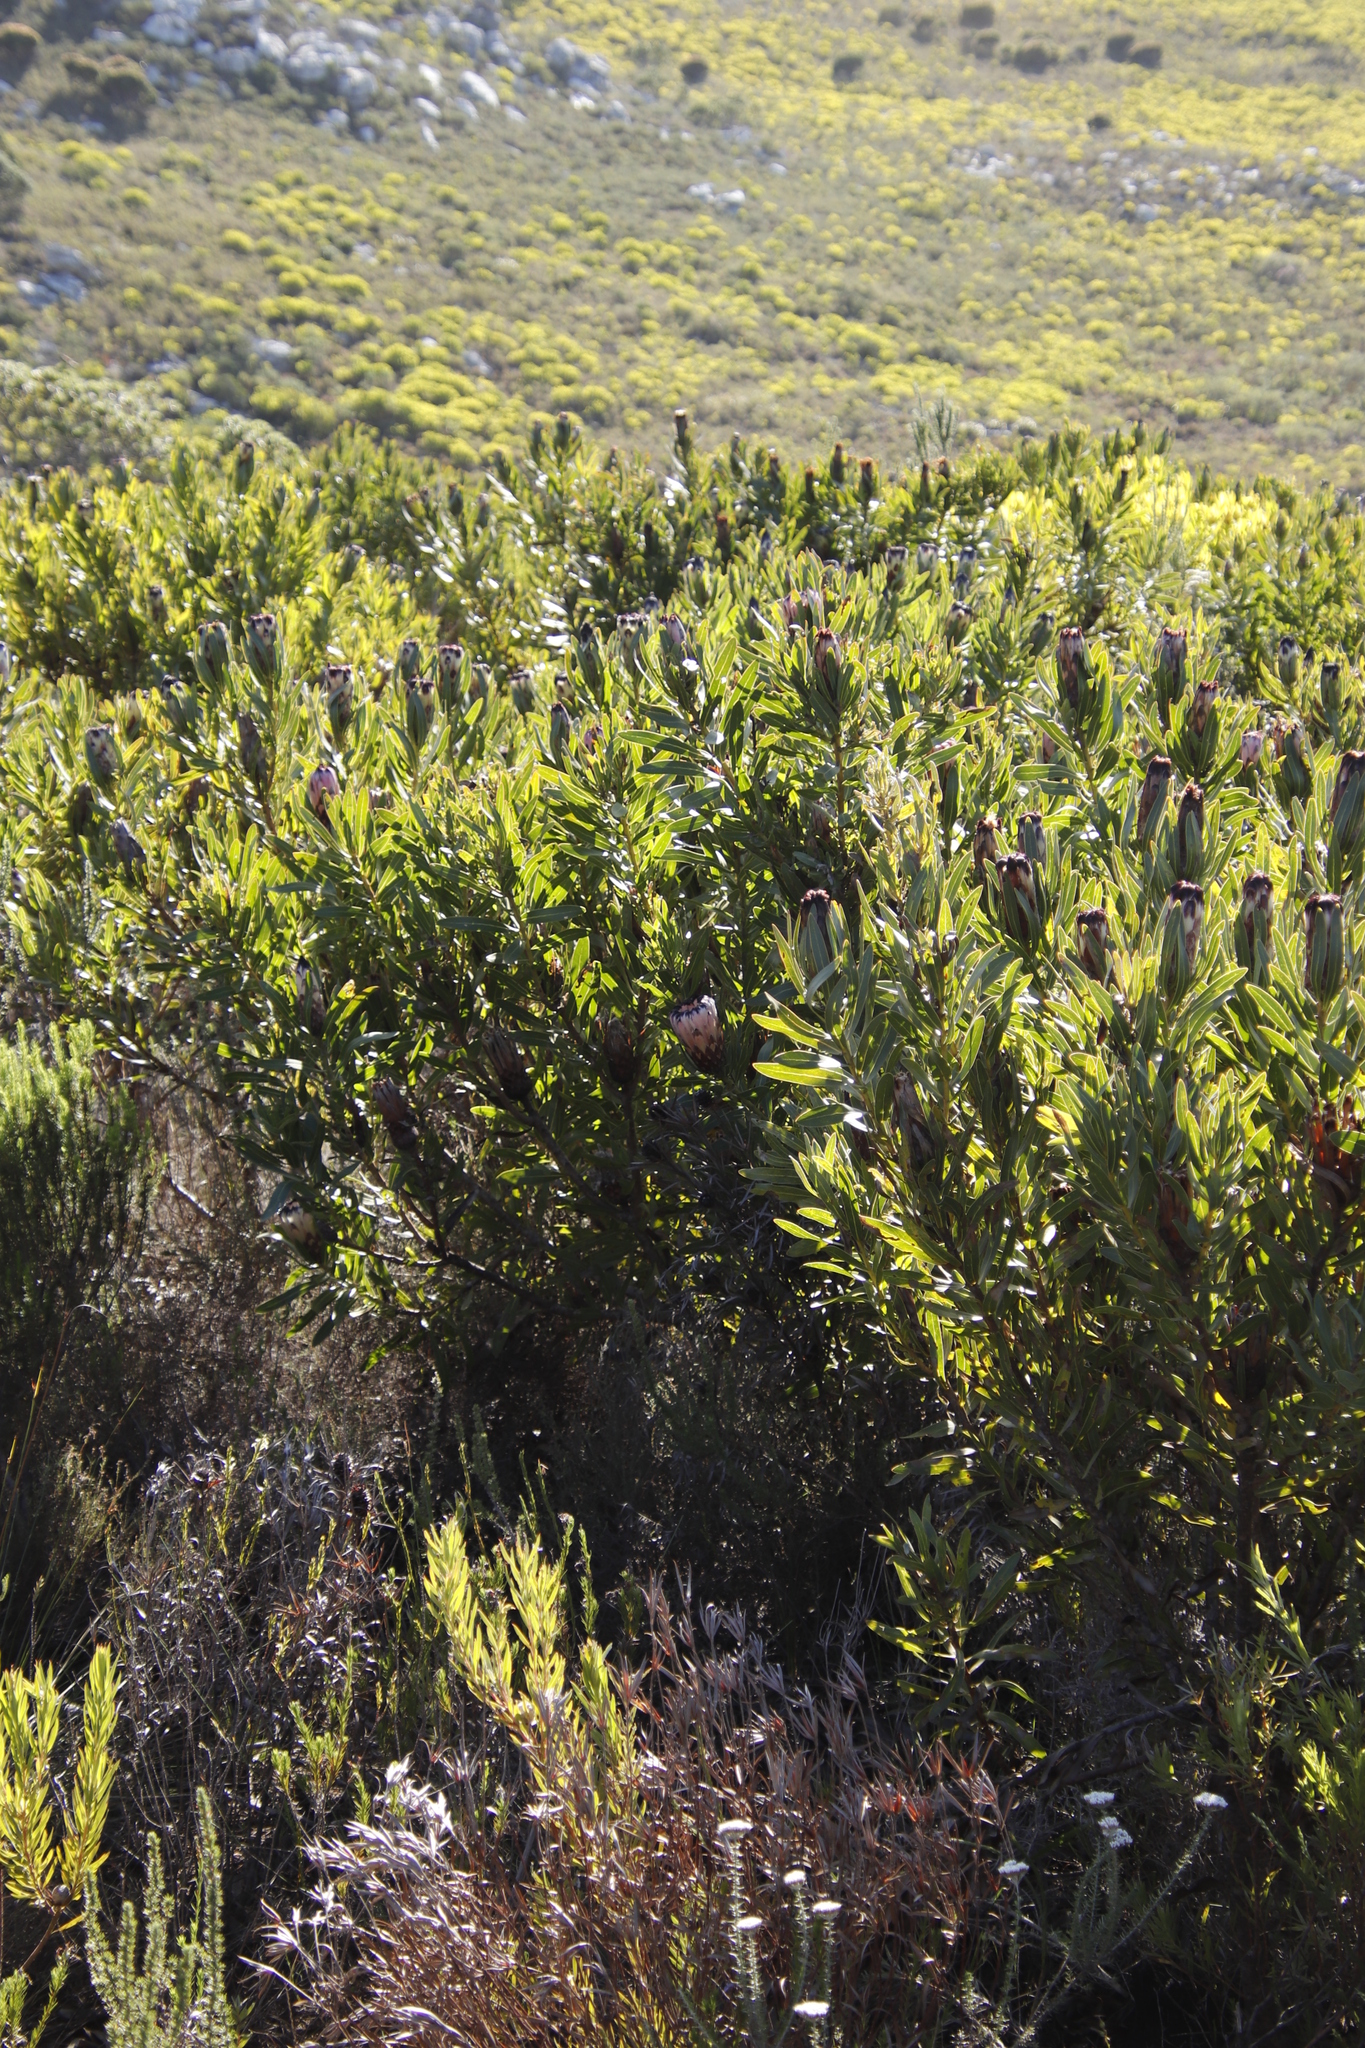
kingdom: Plantae
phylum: Tracheophyta
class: Magnoliopsida
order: Proteales
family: Proteaceae
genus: Protea
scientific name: Protea
